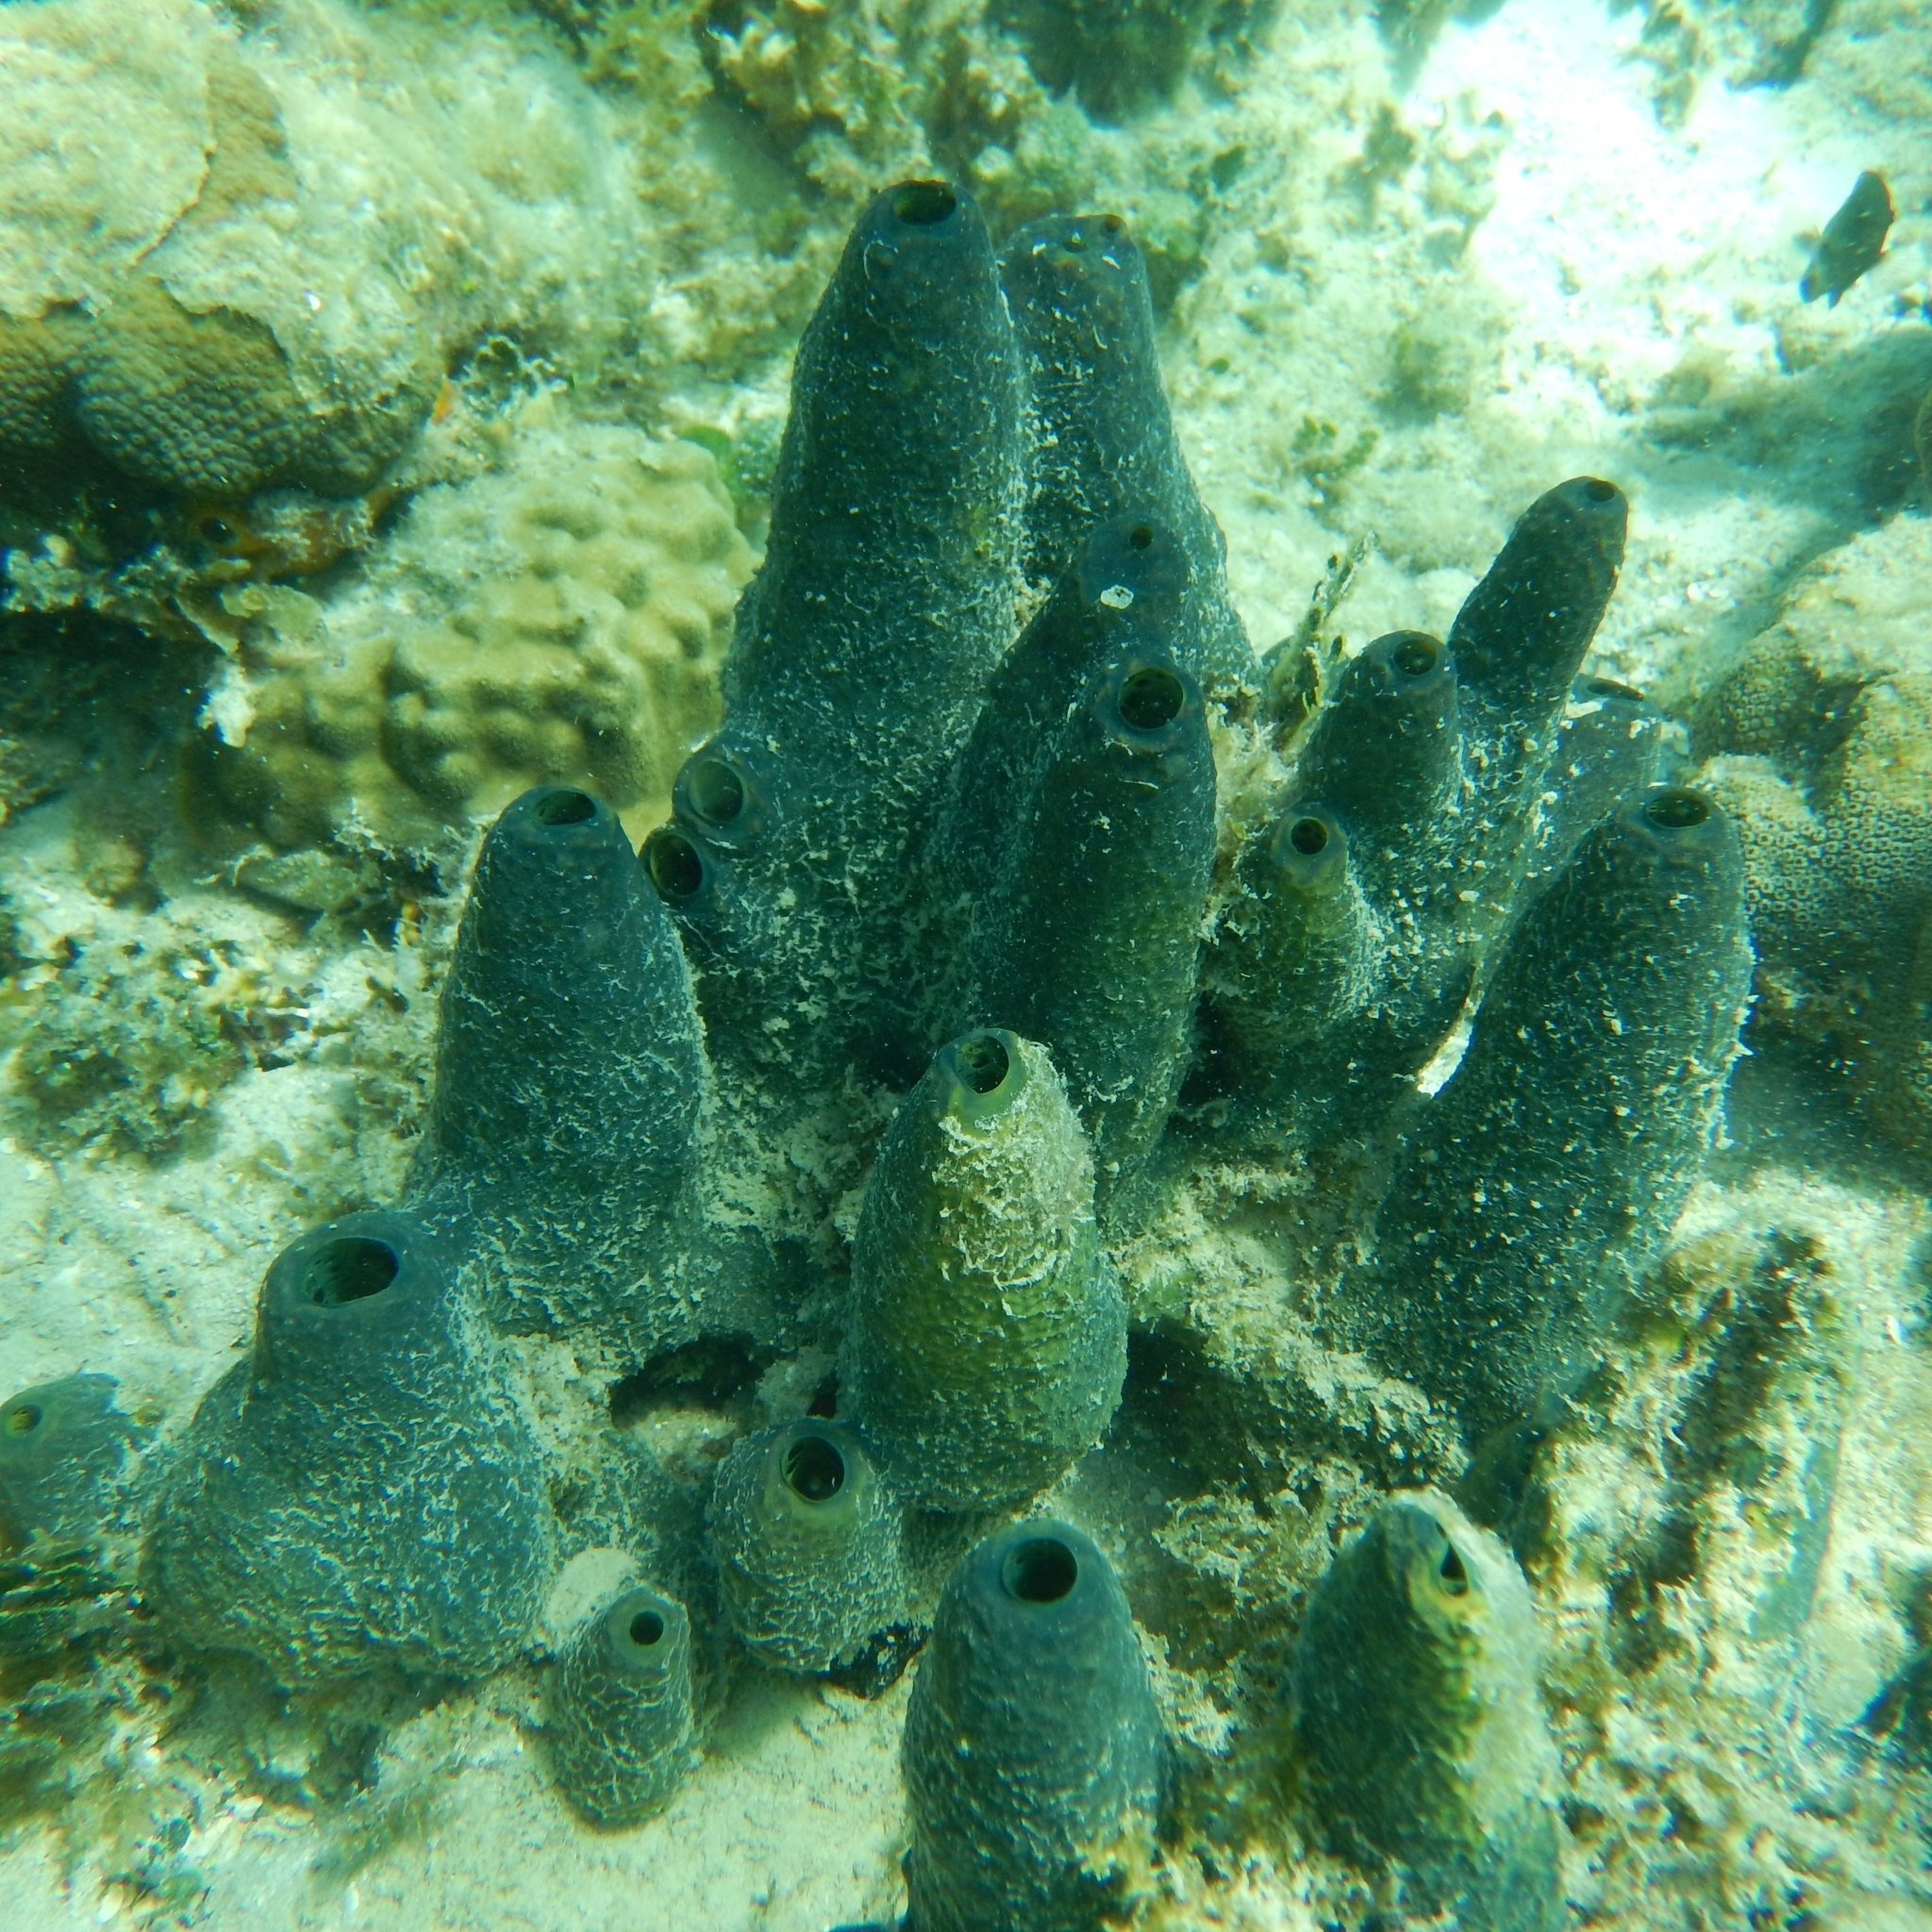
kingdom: Animalia
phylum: Porifera
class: Demospongiae
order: Verongiida
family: Aplysinidae
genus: Verongula
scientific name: Verongula reiswigi
